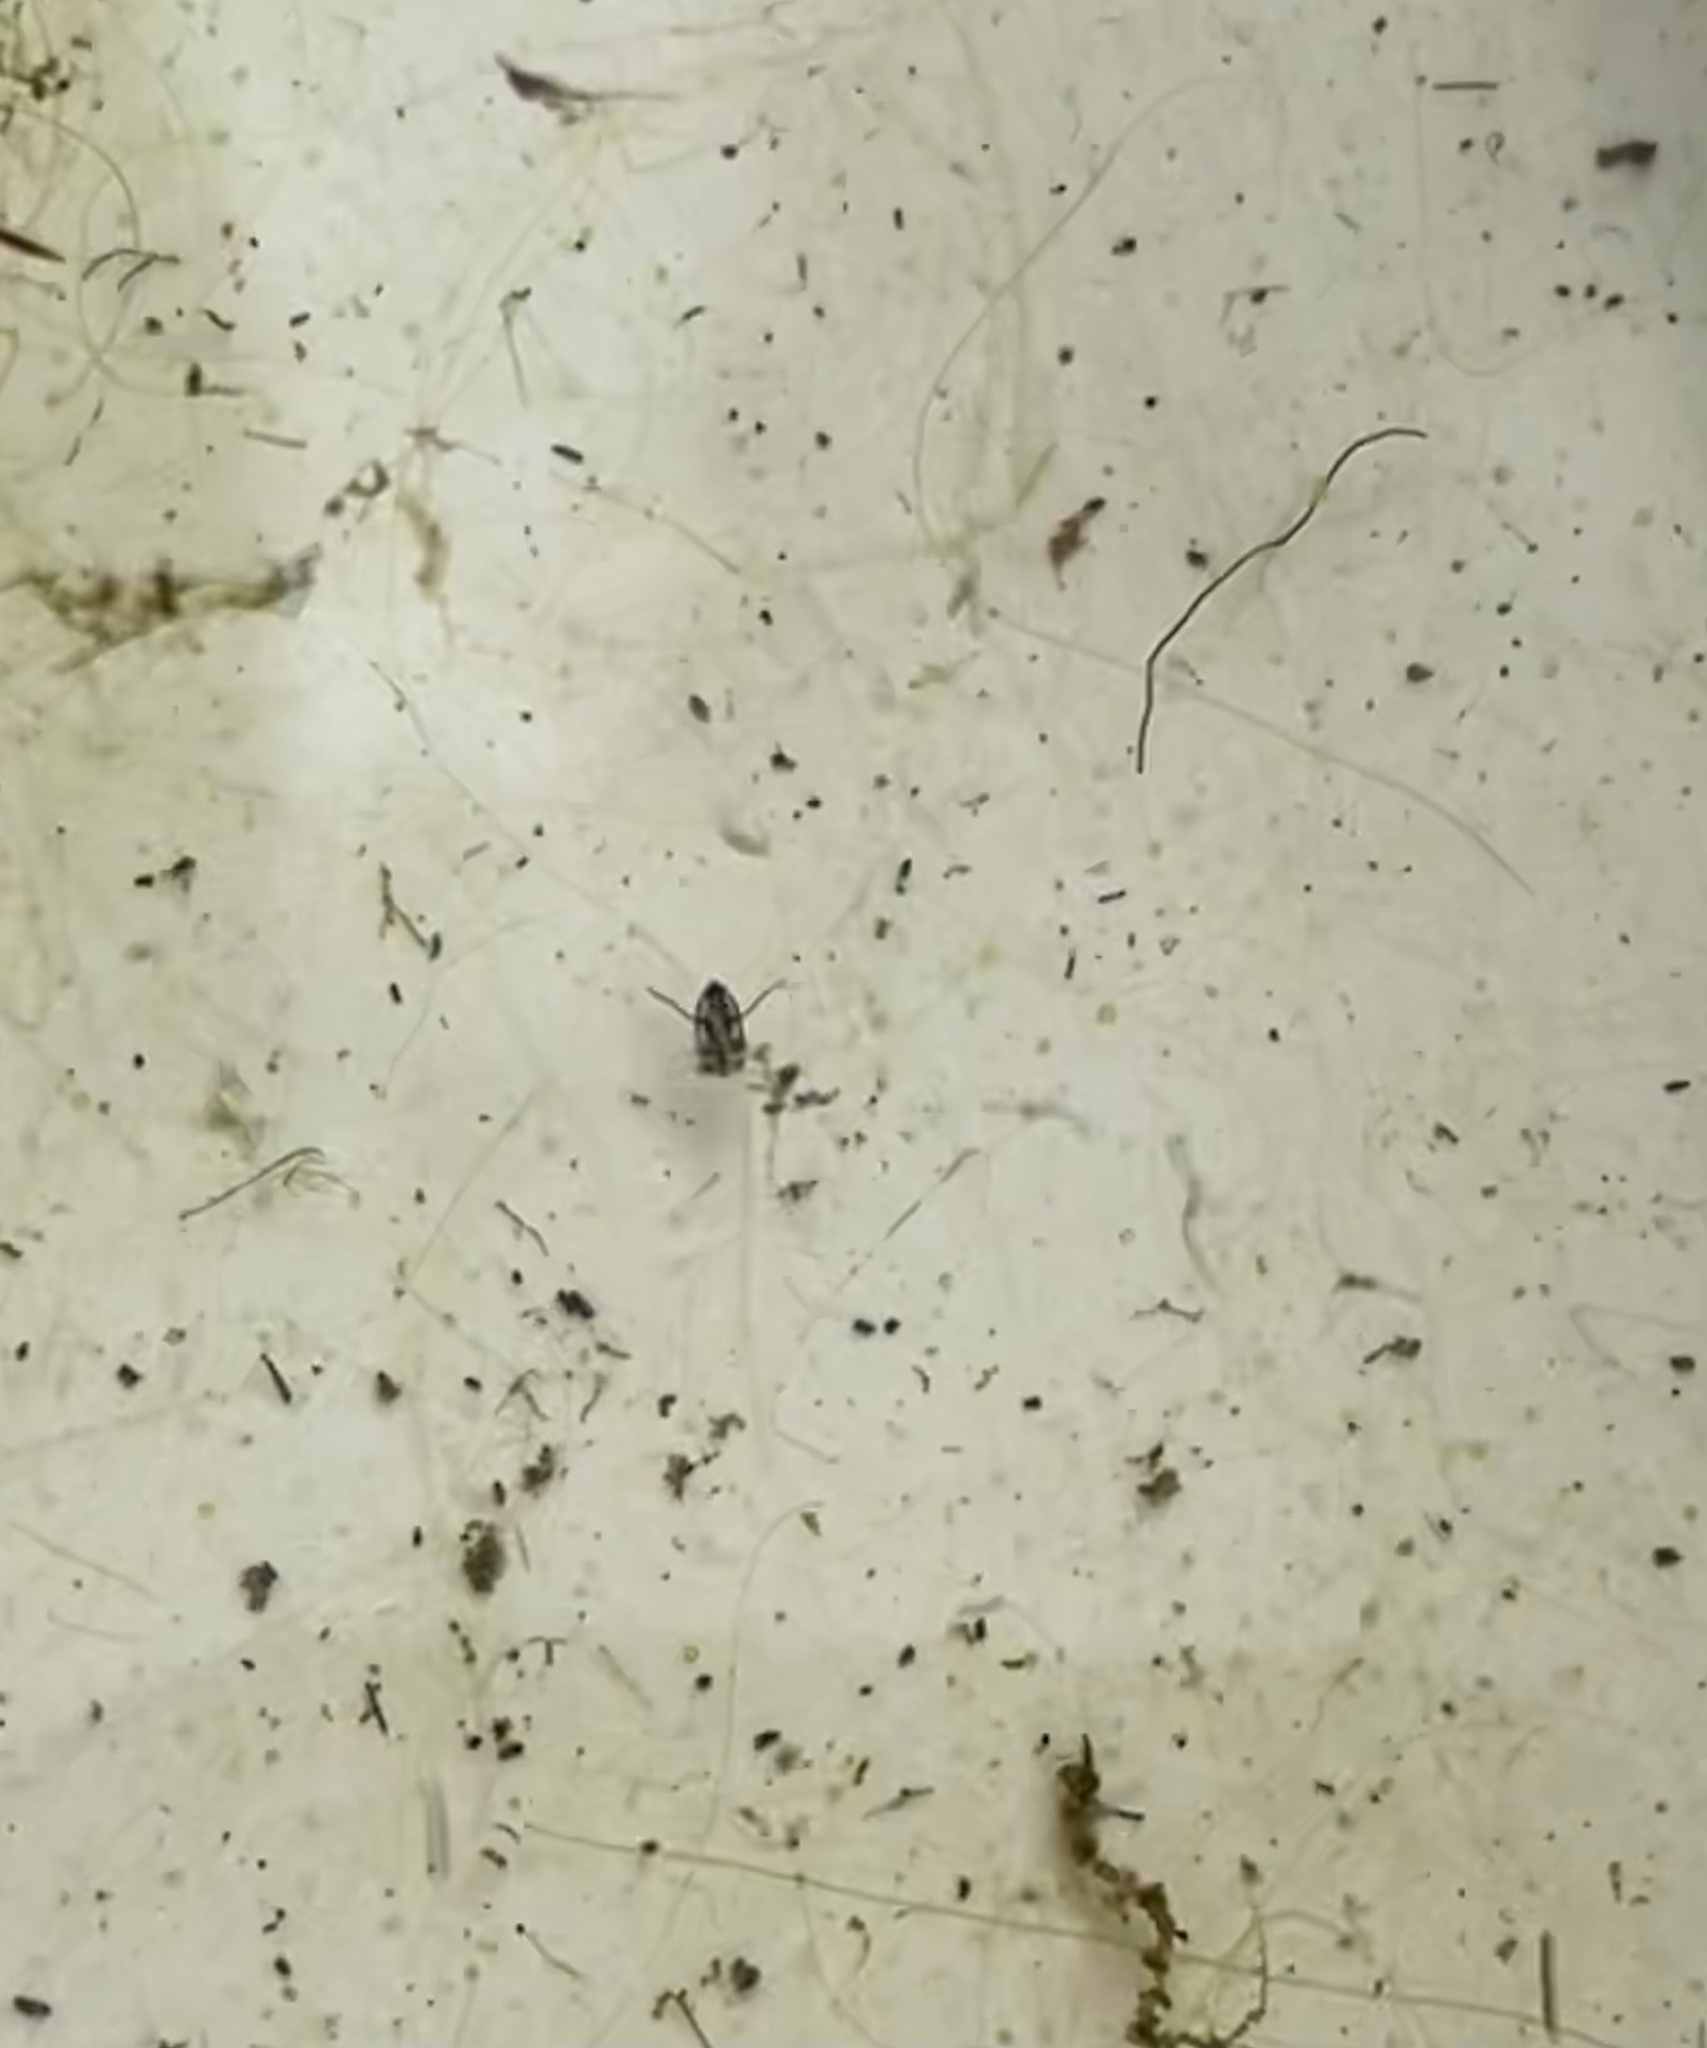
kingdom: Animalia
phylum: Arthropoda
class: Insecta
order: Hemiptera
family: Pleidae
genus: Plea
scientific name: Plea minutissima
